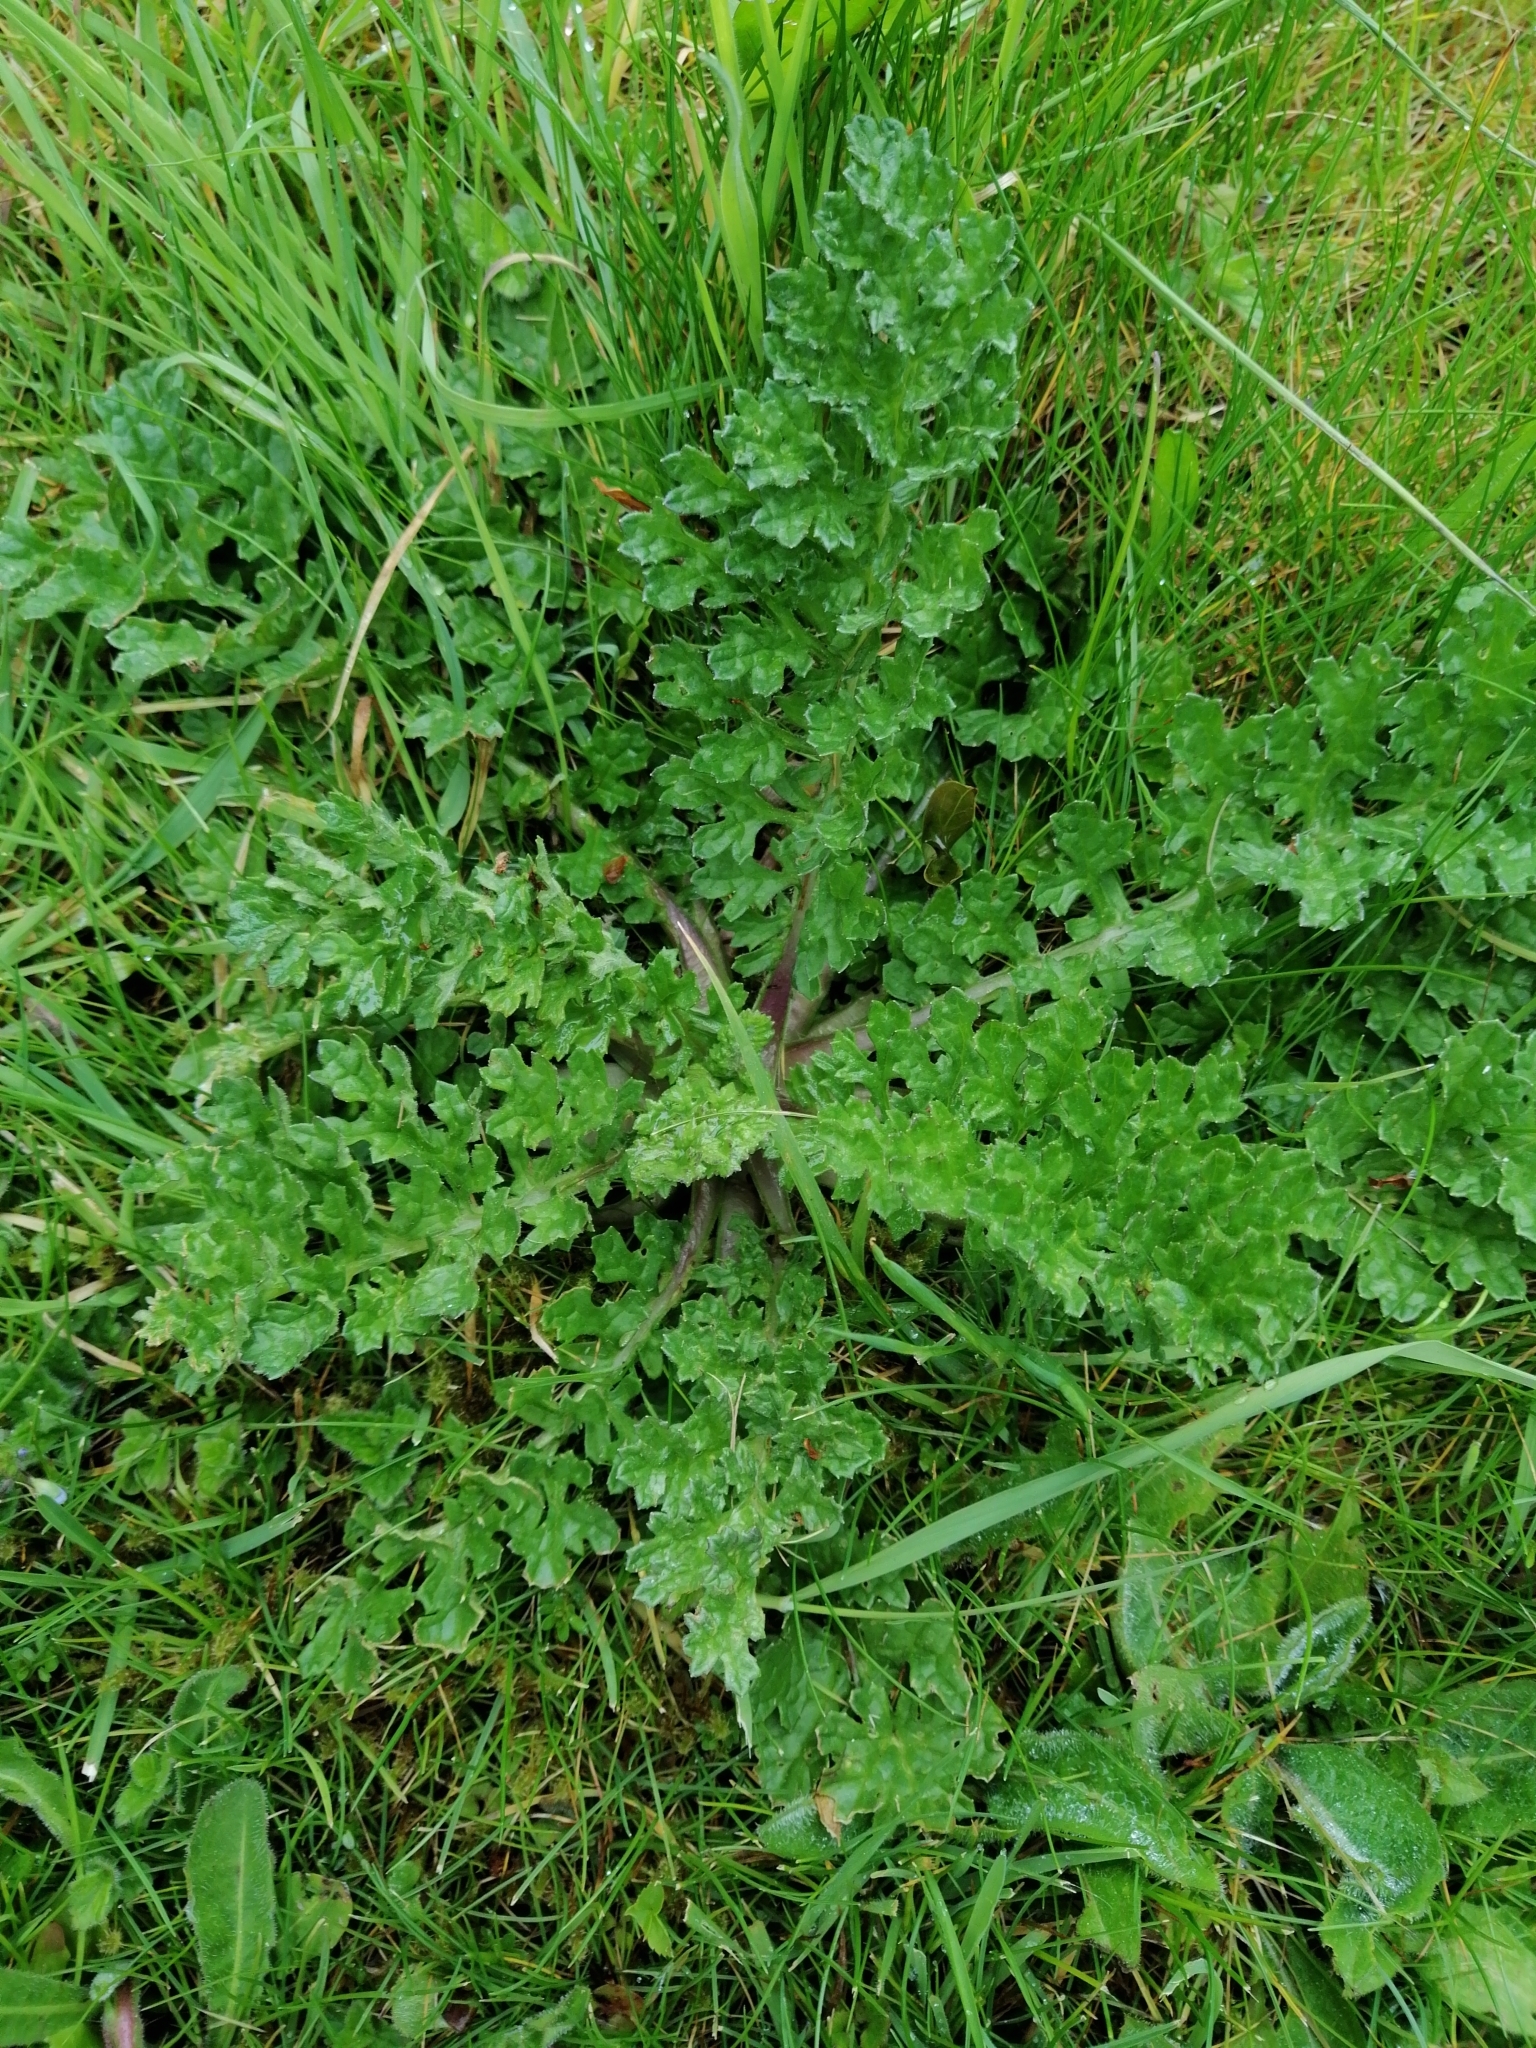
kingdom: Plantae
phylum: Tracheophyta
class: Magnoliopsida
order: Asterales
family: Asteraceae
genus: Jacobaea
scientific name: Jacobaea vulgaris
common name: Stinking willie
